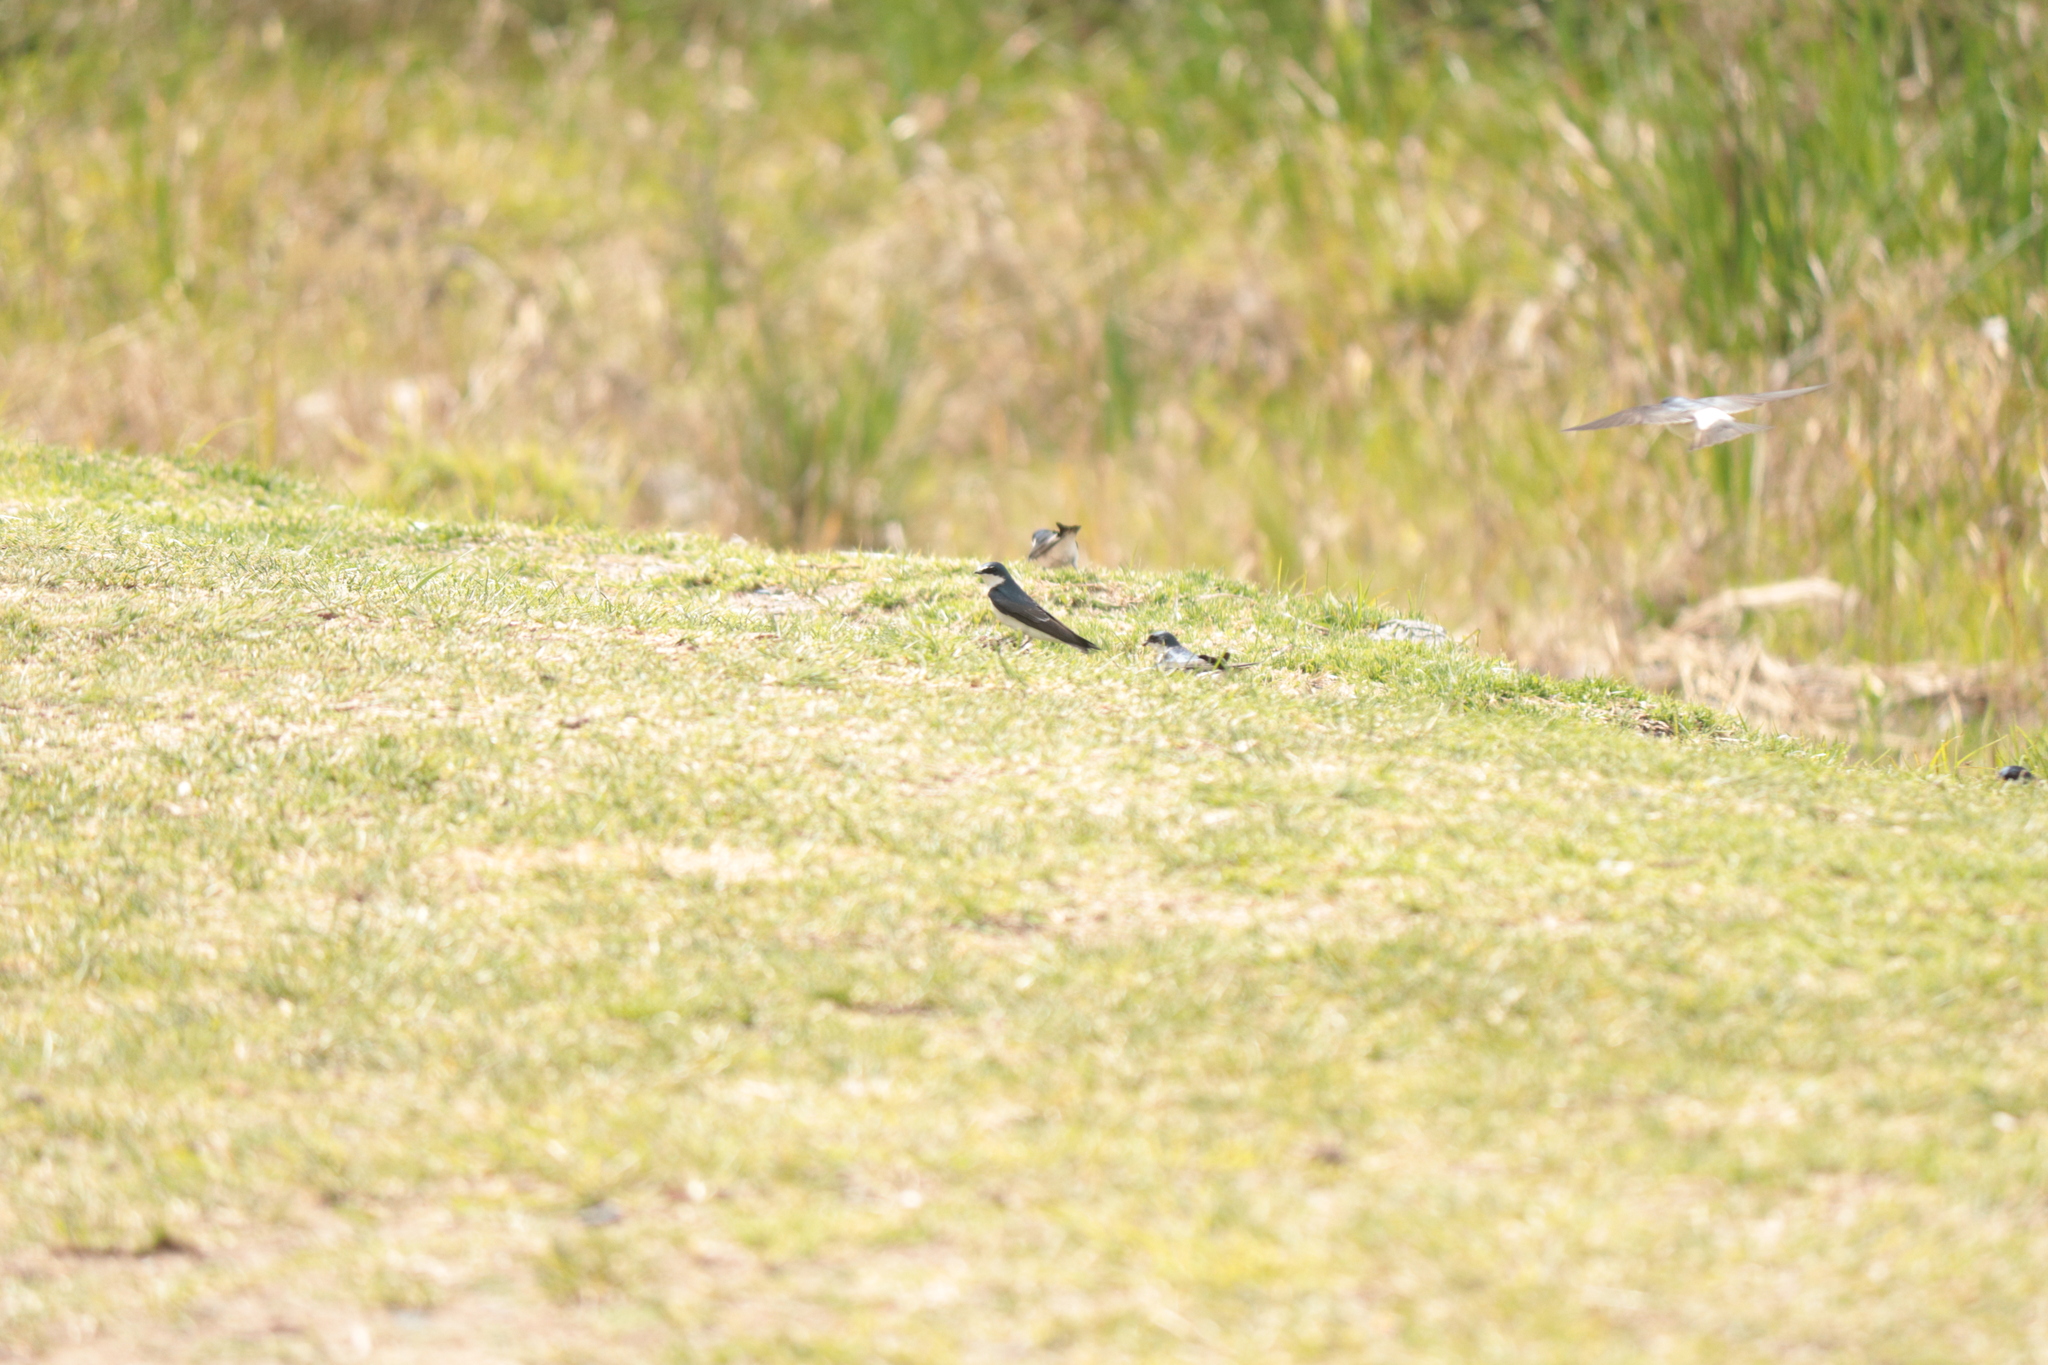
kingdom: Animalia
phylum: Chordata
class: Aves
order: Passeriformes
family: Hirundinidae
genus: Tachycineta
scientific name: Tachycineta leucorrhoa
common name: White-rumped swallow
